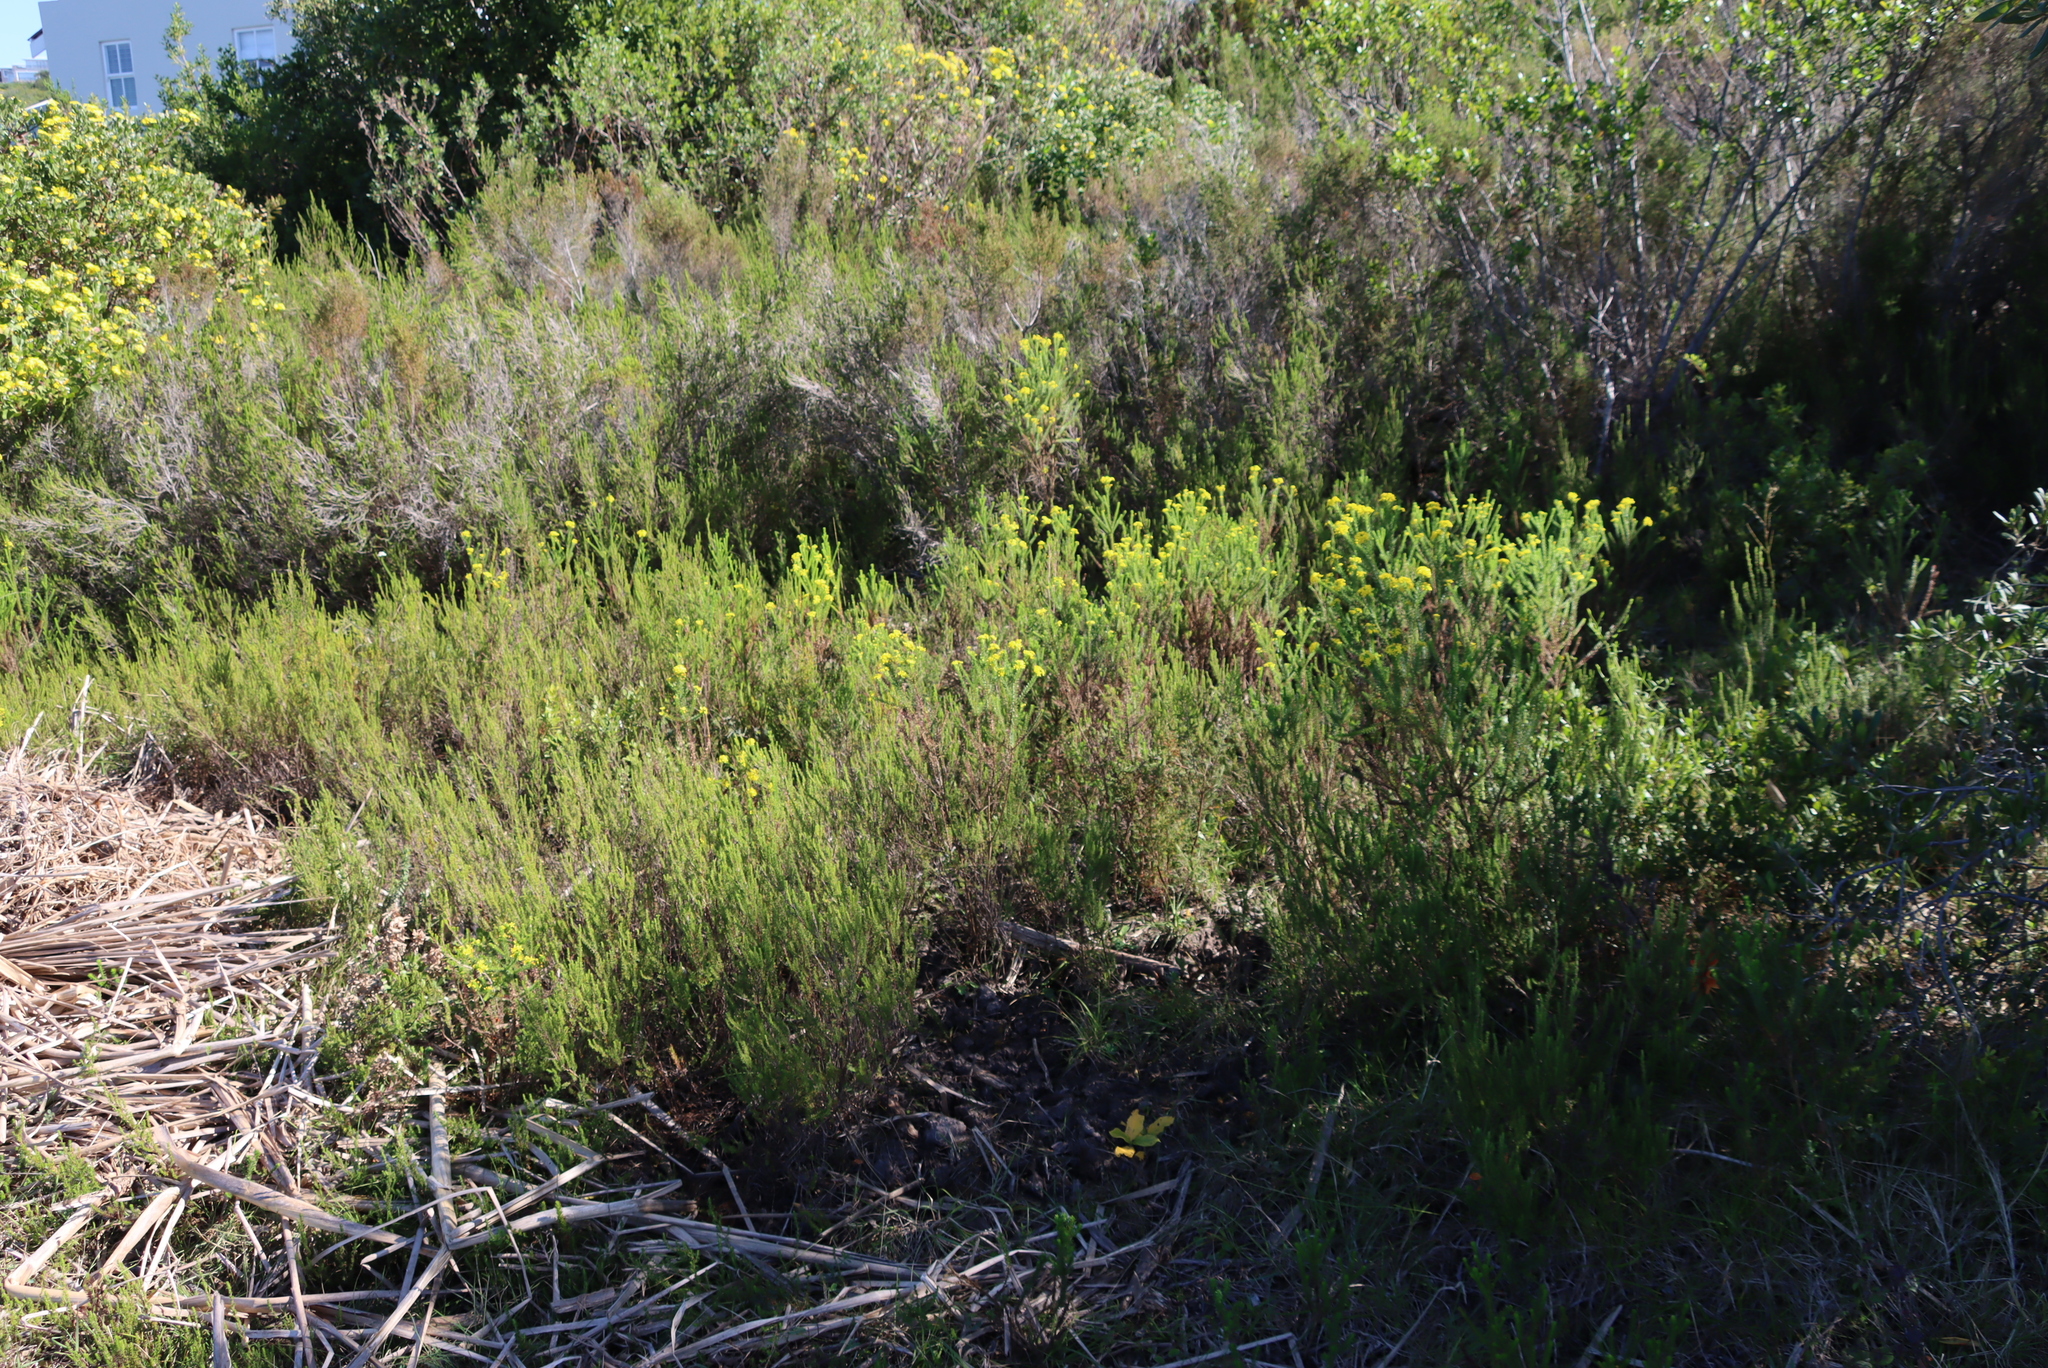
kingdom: Plantae
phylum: Tracheophyta
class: Magnoliopsida
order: Asterales
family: Asteraceae
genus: Euryops
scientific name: Euryops virgineus
